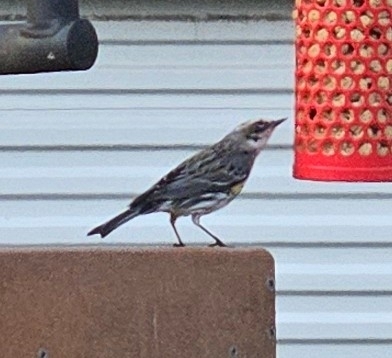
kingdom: Animalia
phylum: Chordata
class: Aves
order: Passeriformes
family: Parulidae
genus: Setophaga
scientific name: Setophaga coronata
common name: Myrtle warbler
